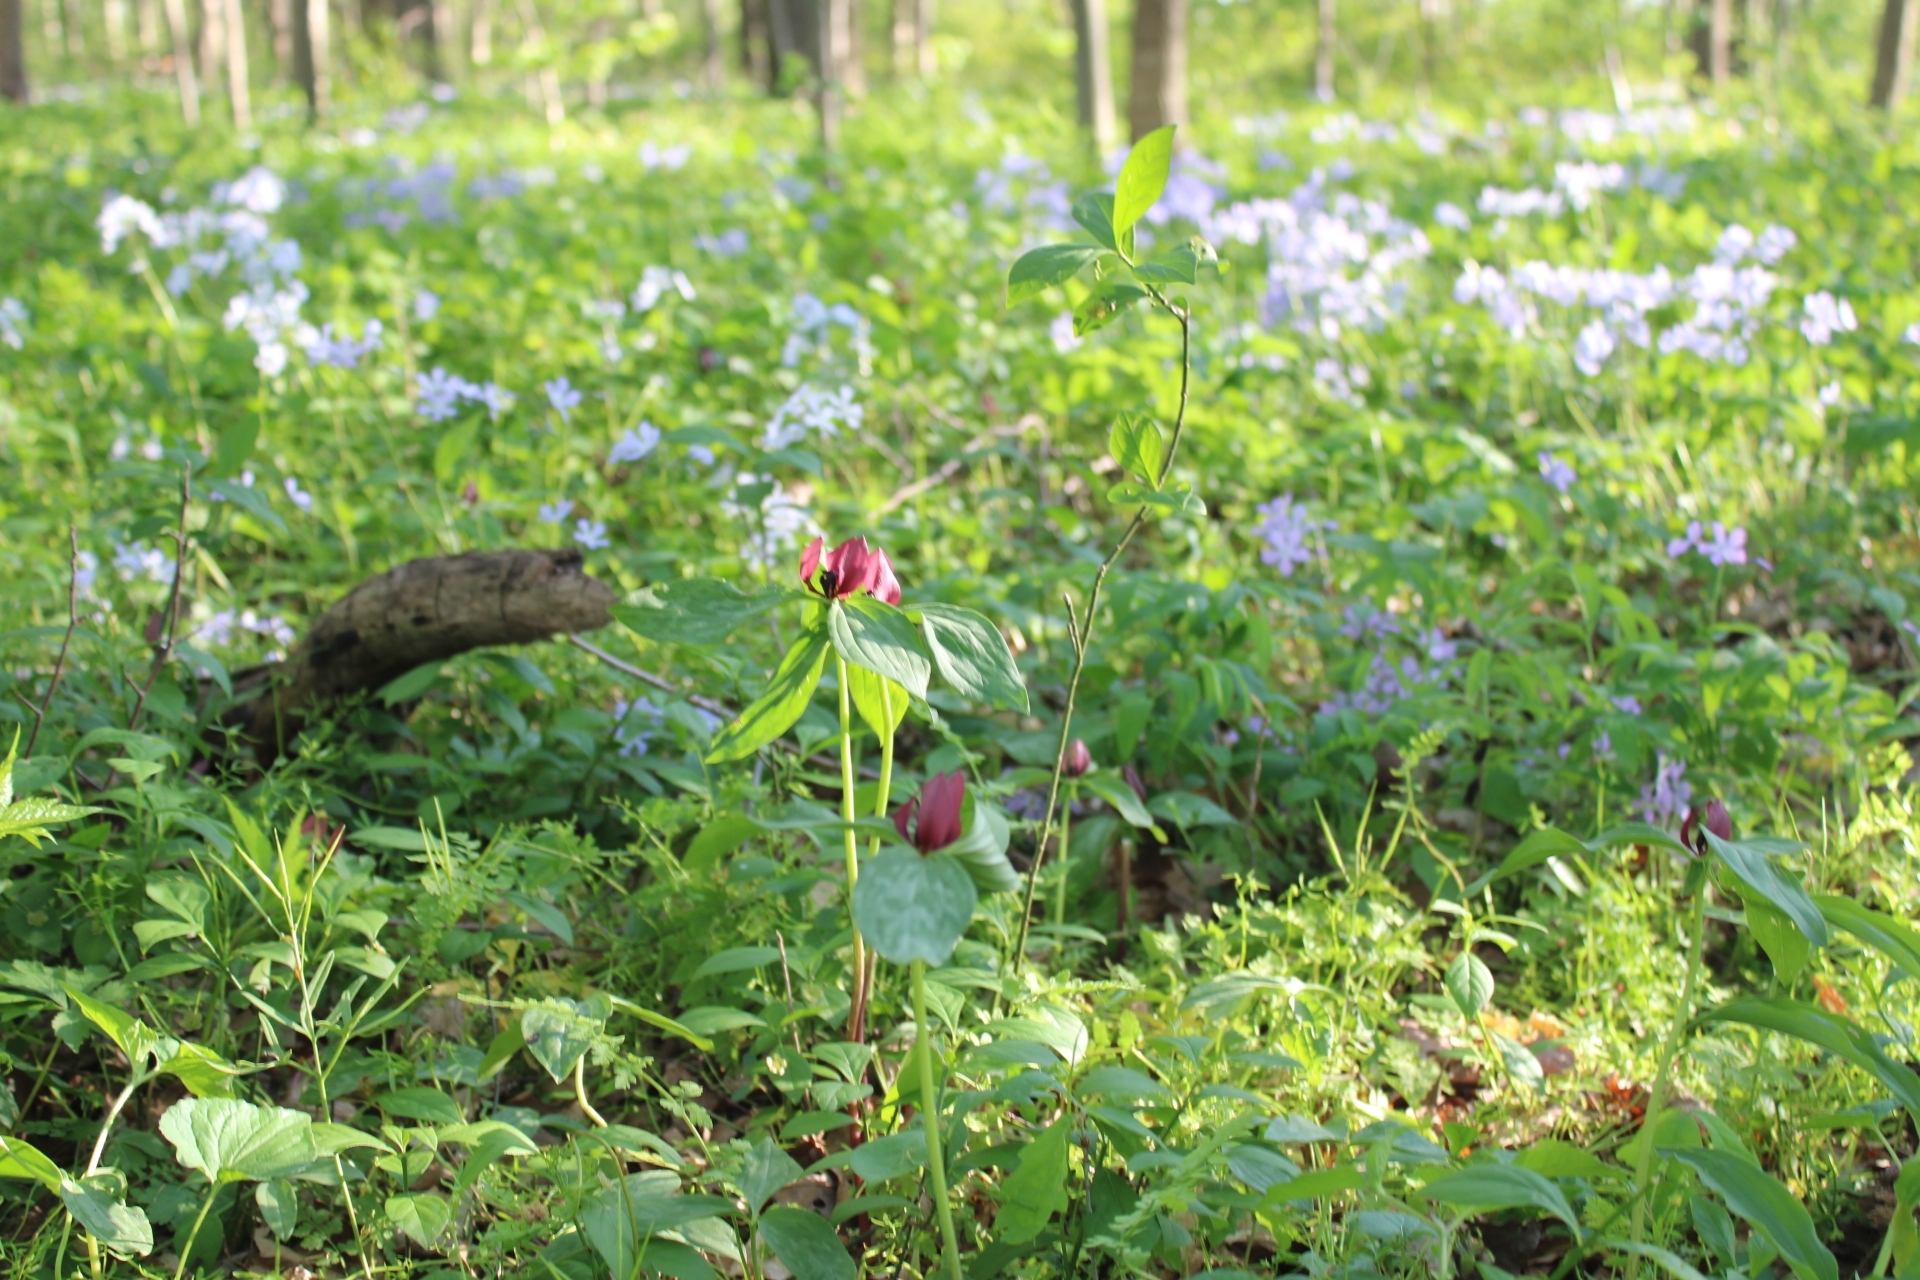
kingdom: Plantae
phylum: Tracheophyta
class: Liliopsida
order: Liliales
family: Melanthiaceae
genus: Trillium
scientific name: Trillium recurvatum
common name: Bloody butcher
